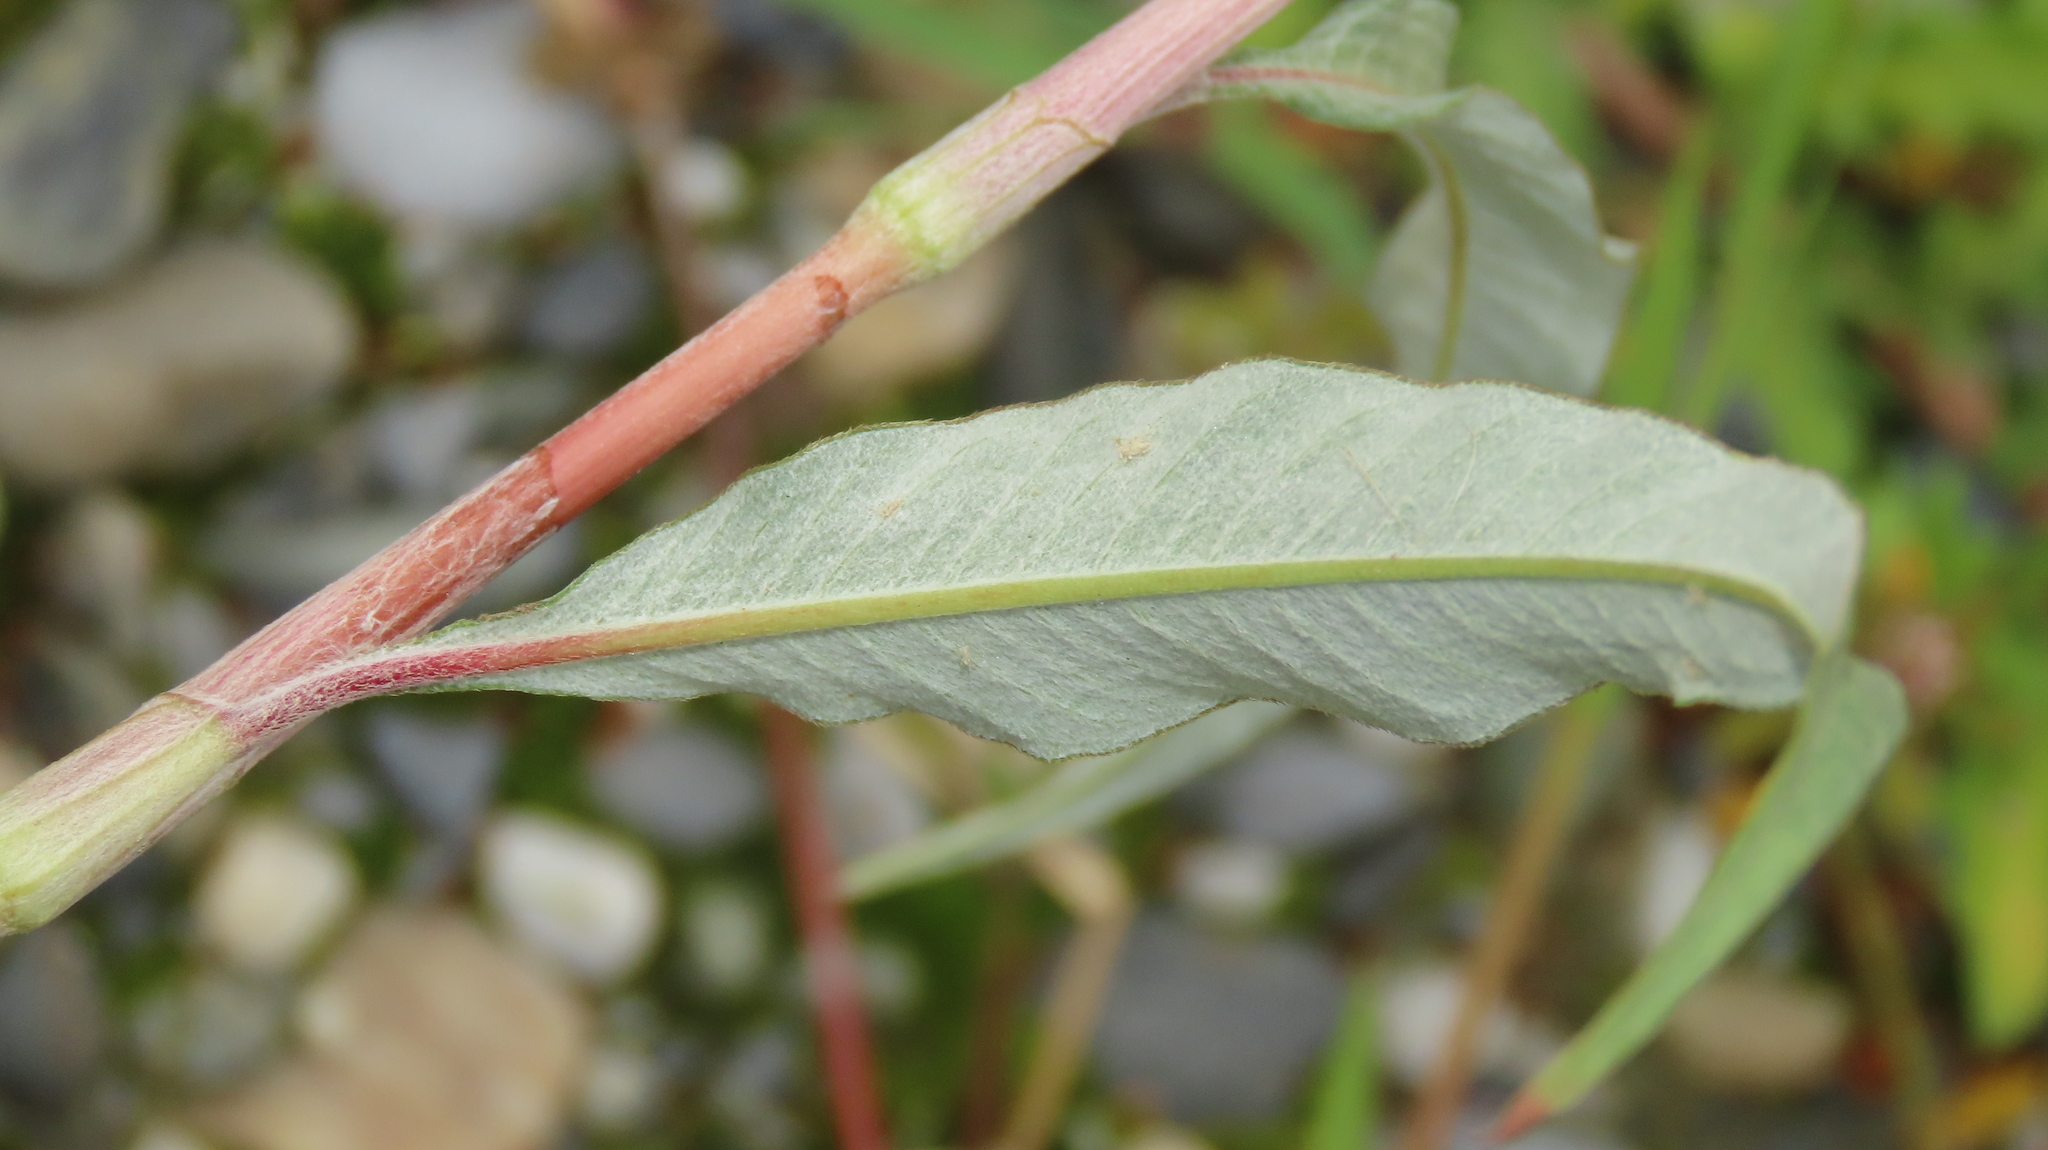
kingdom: Plantae
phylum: Tracheophyta
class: Magnoliopsida
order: Caryophyllales
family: Polygonaceae
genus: Persicaria
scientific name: Persicaria lanata
